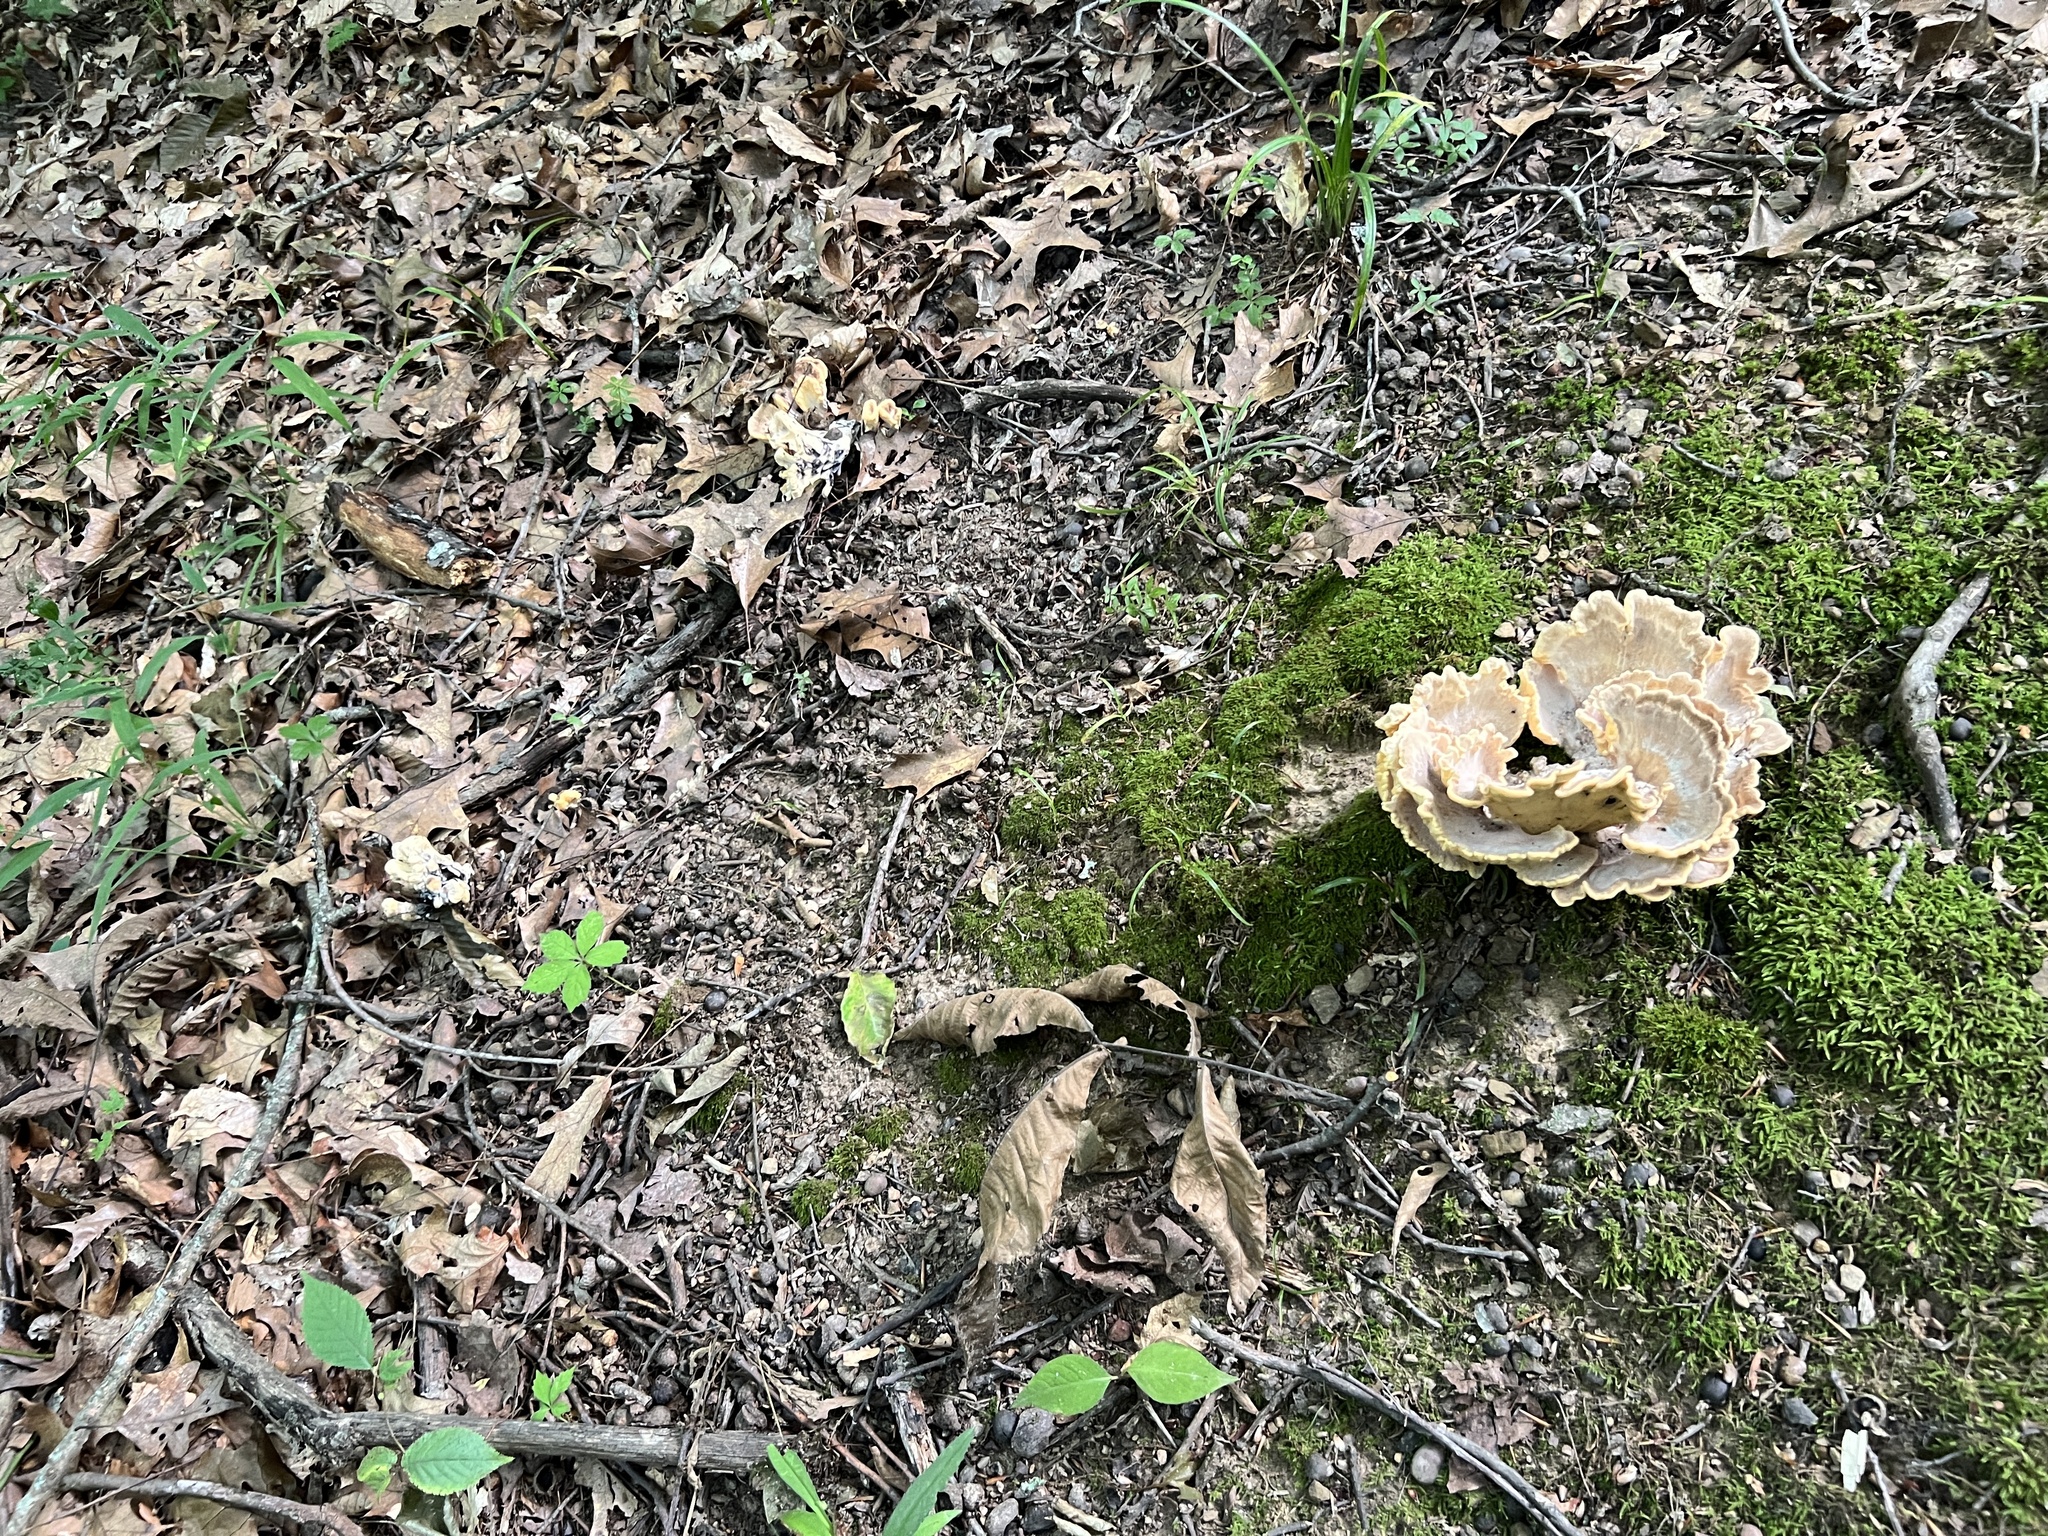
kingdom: Fungi
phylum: Basidiomycota
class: Agaricomycetes
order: Polyporales
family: Meripilaceae
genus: Meripilus
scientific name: Meripilus sumstinei
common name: Black-staining polypore
